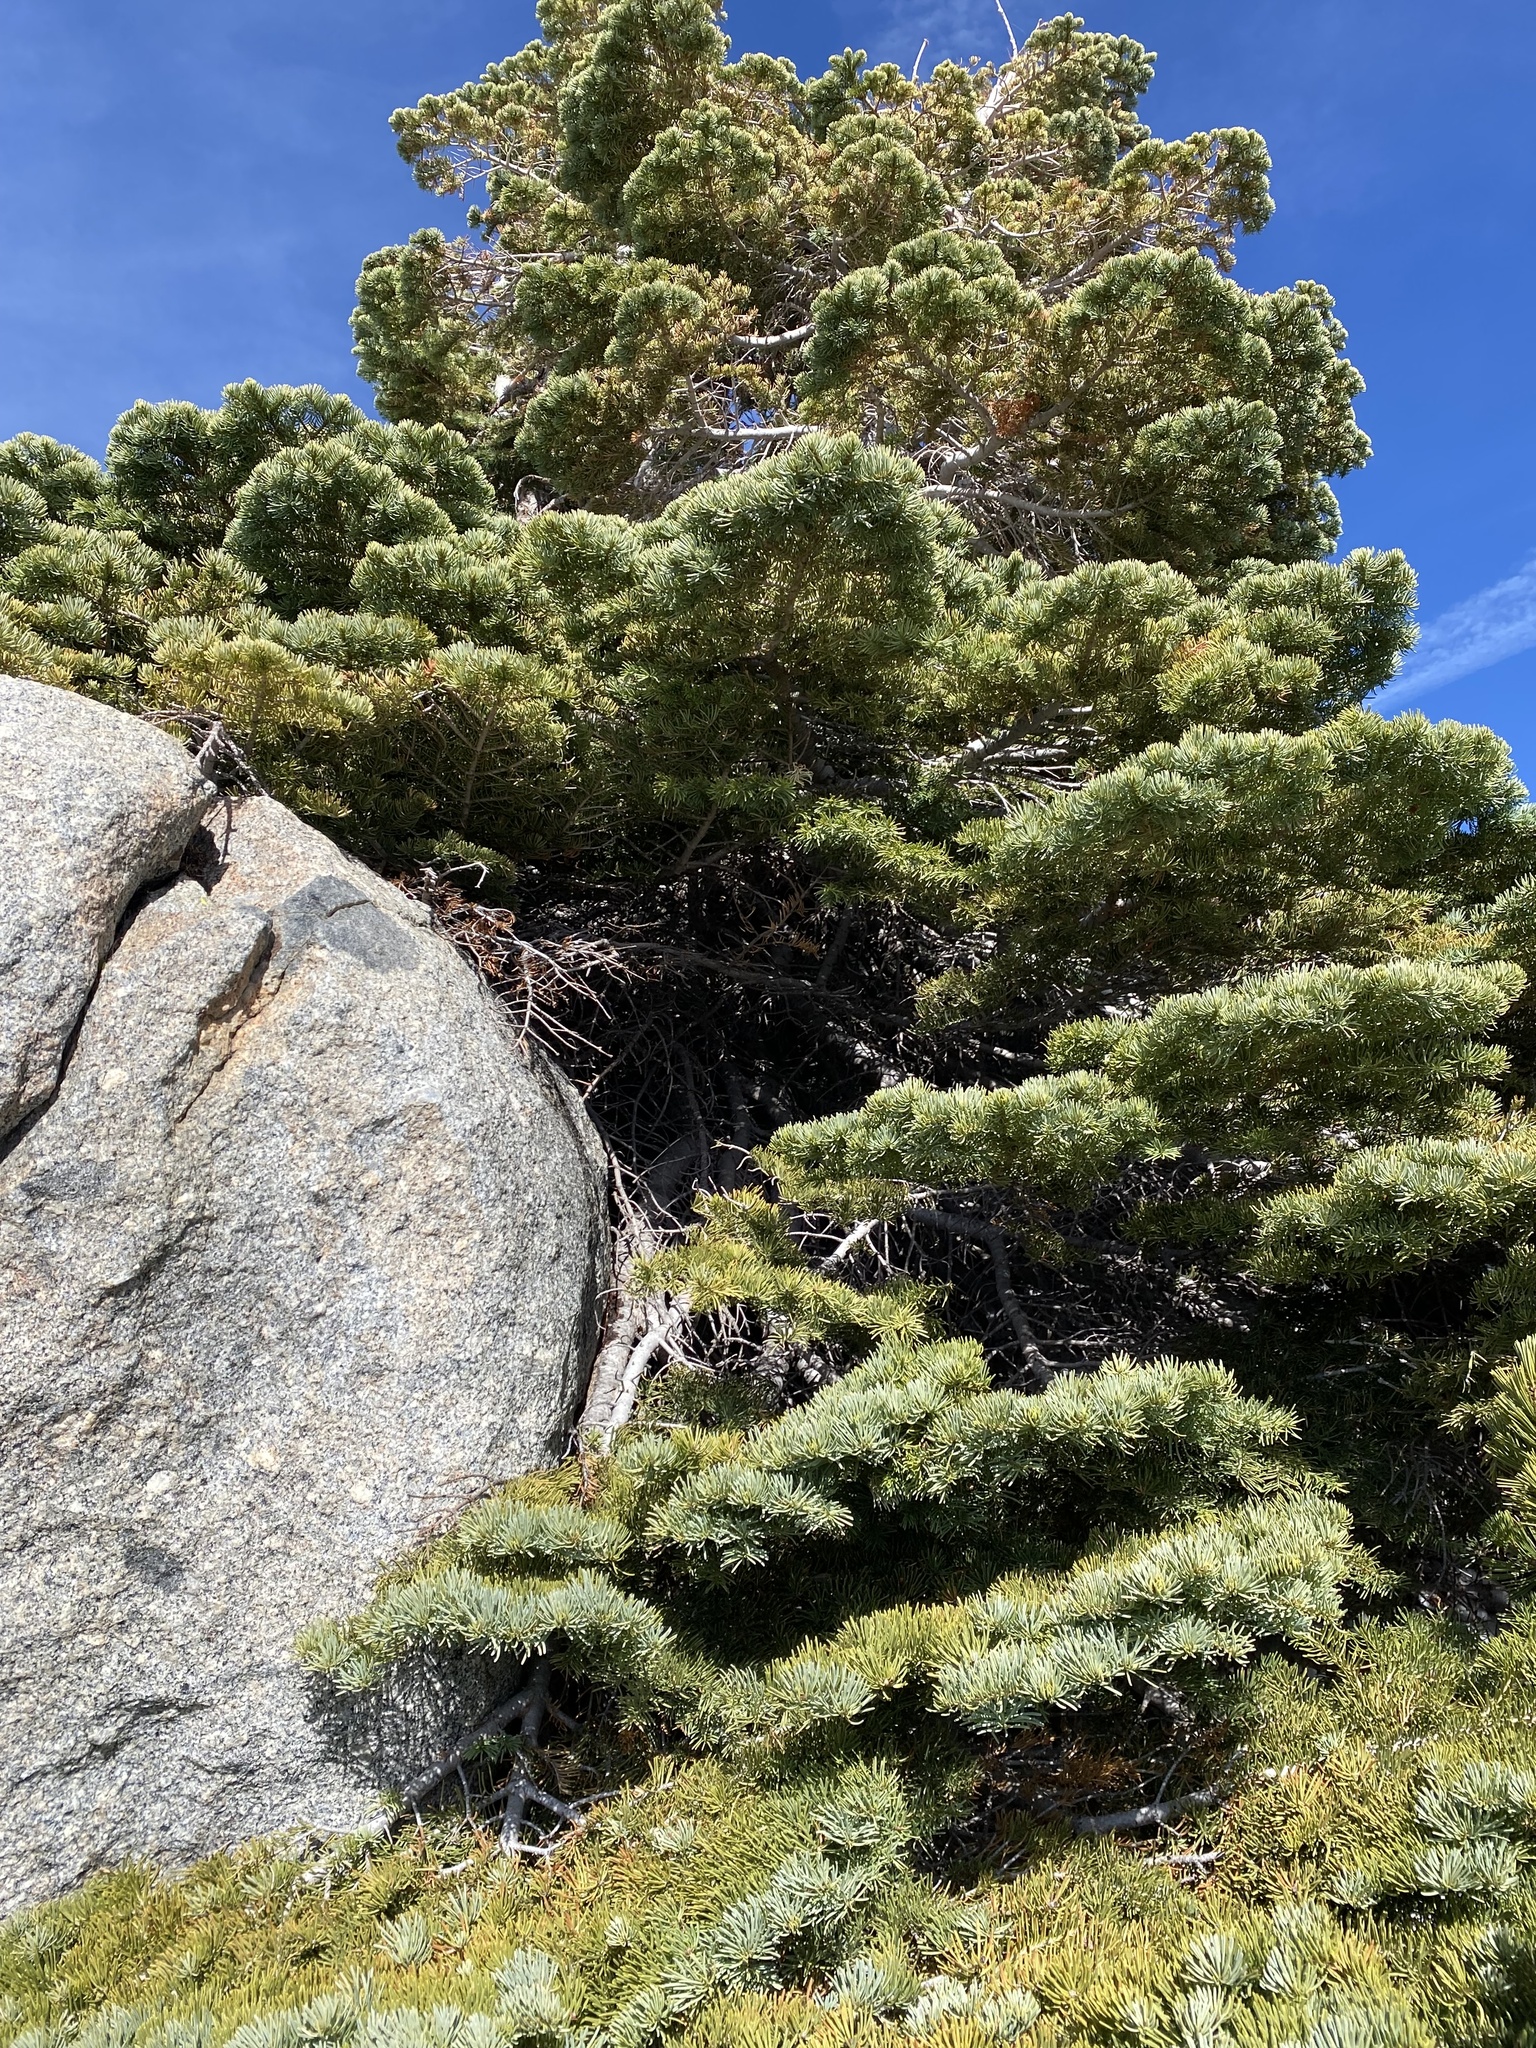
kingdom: Plantae
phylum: Tracheophyta
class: Pinopsida
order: Pinales
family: Pinaceae
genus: Abies
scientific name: Abies magnifica bis
